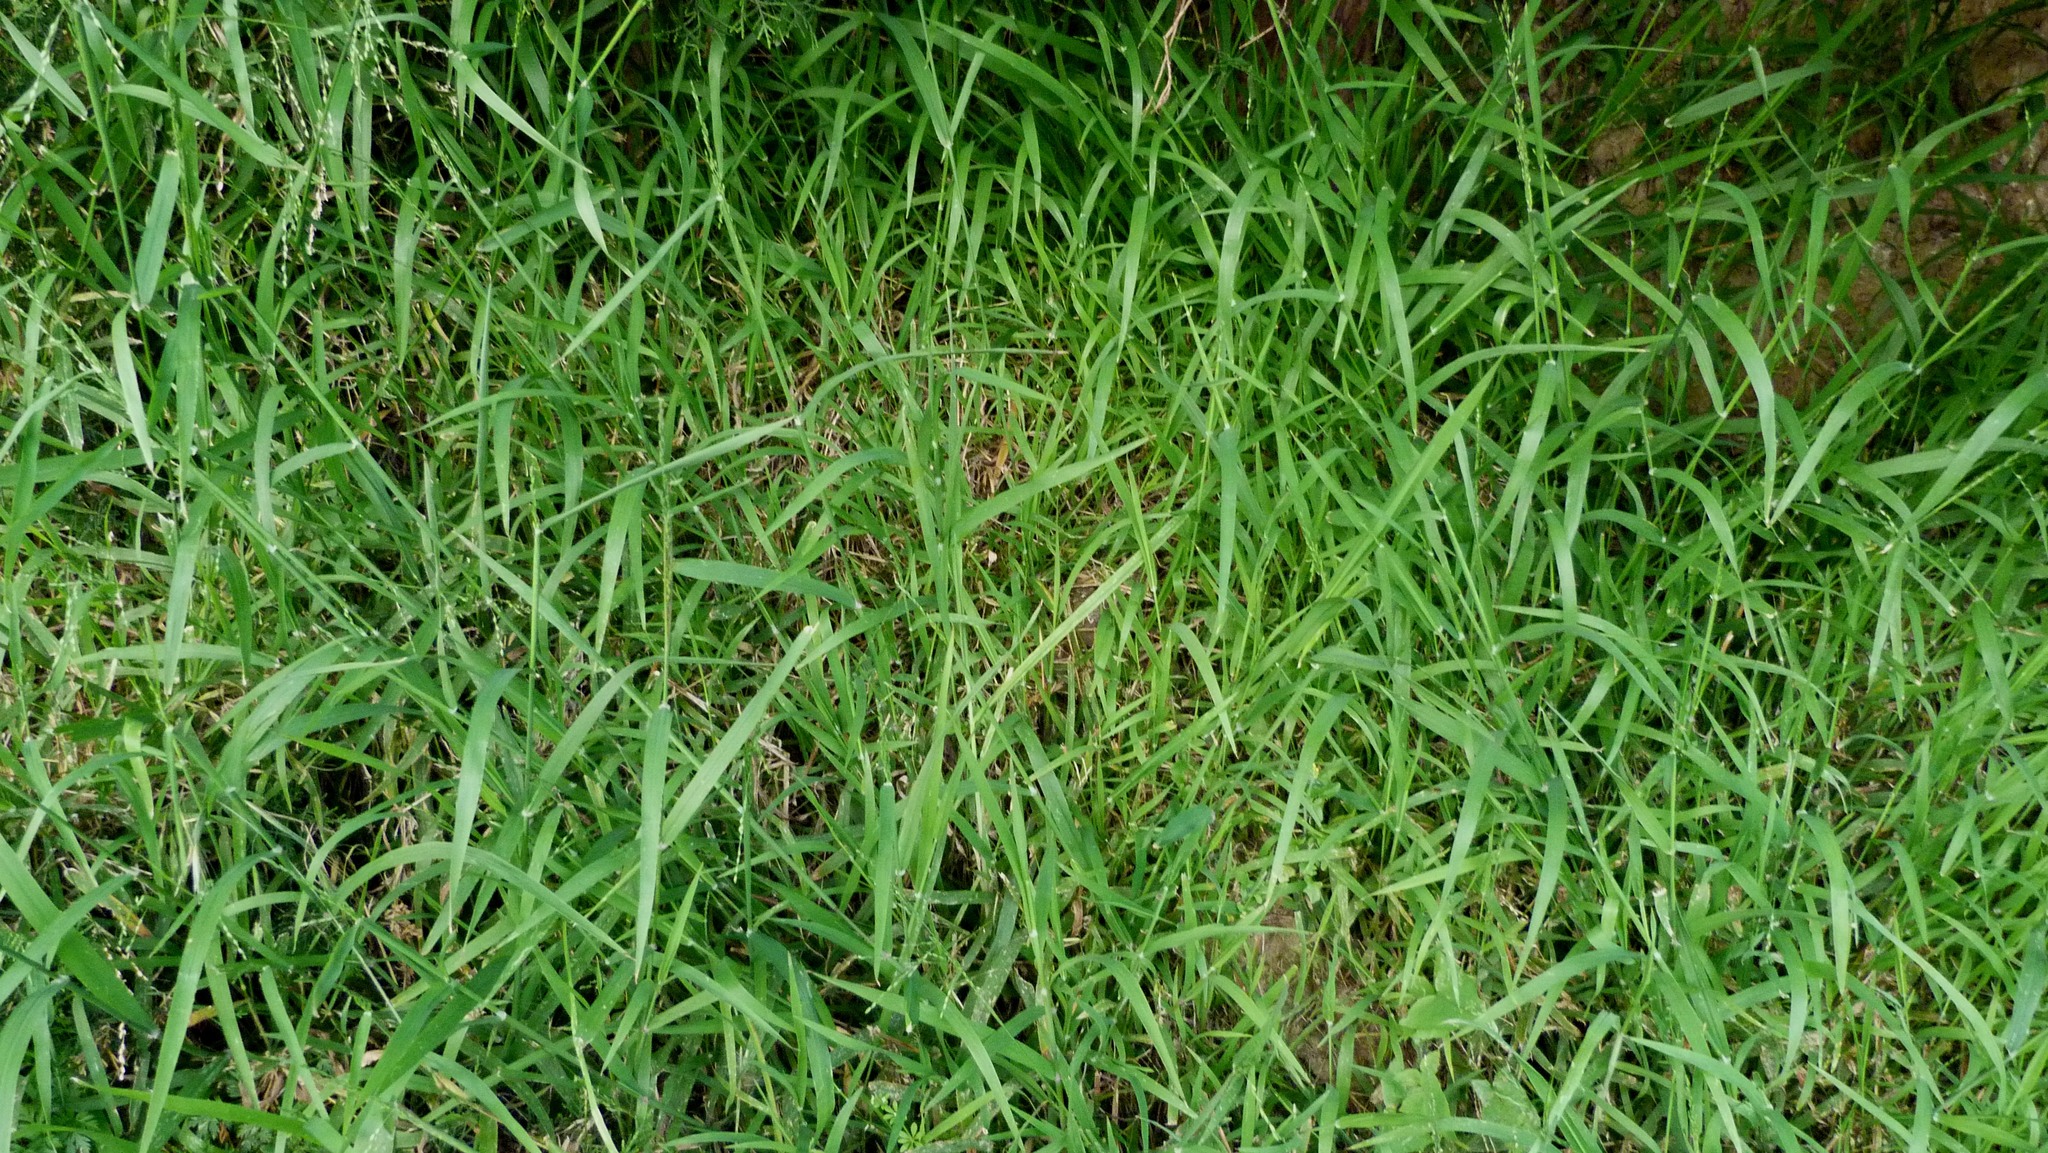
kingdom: Plantae
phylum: Tracheophyta
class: Liliopsida
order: Poales
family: Poaceae
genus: Ehrharta
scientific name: Ehrharta erecta
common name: Panic veldtgrass
